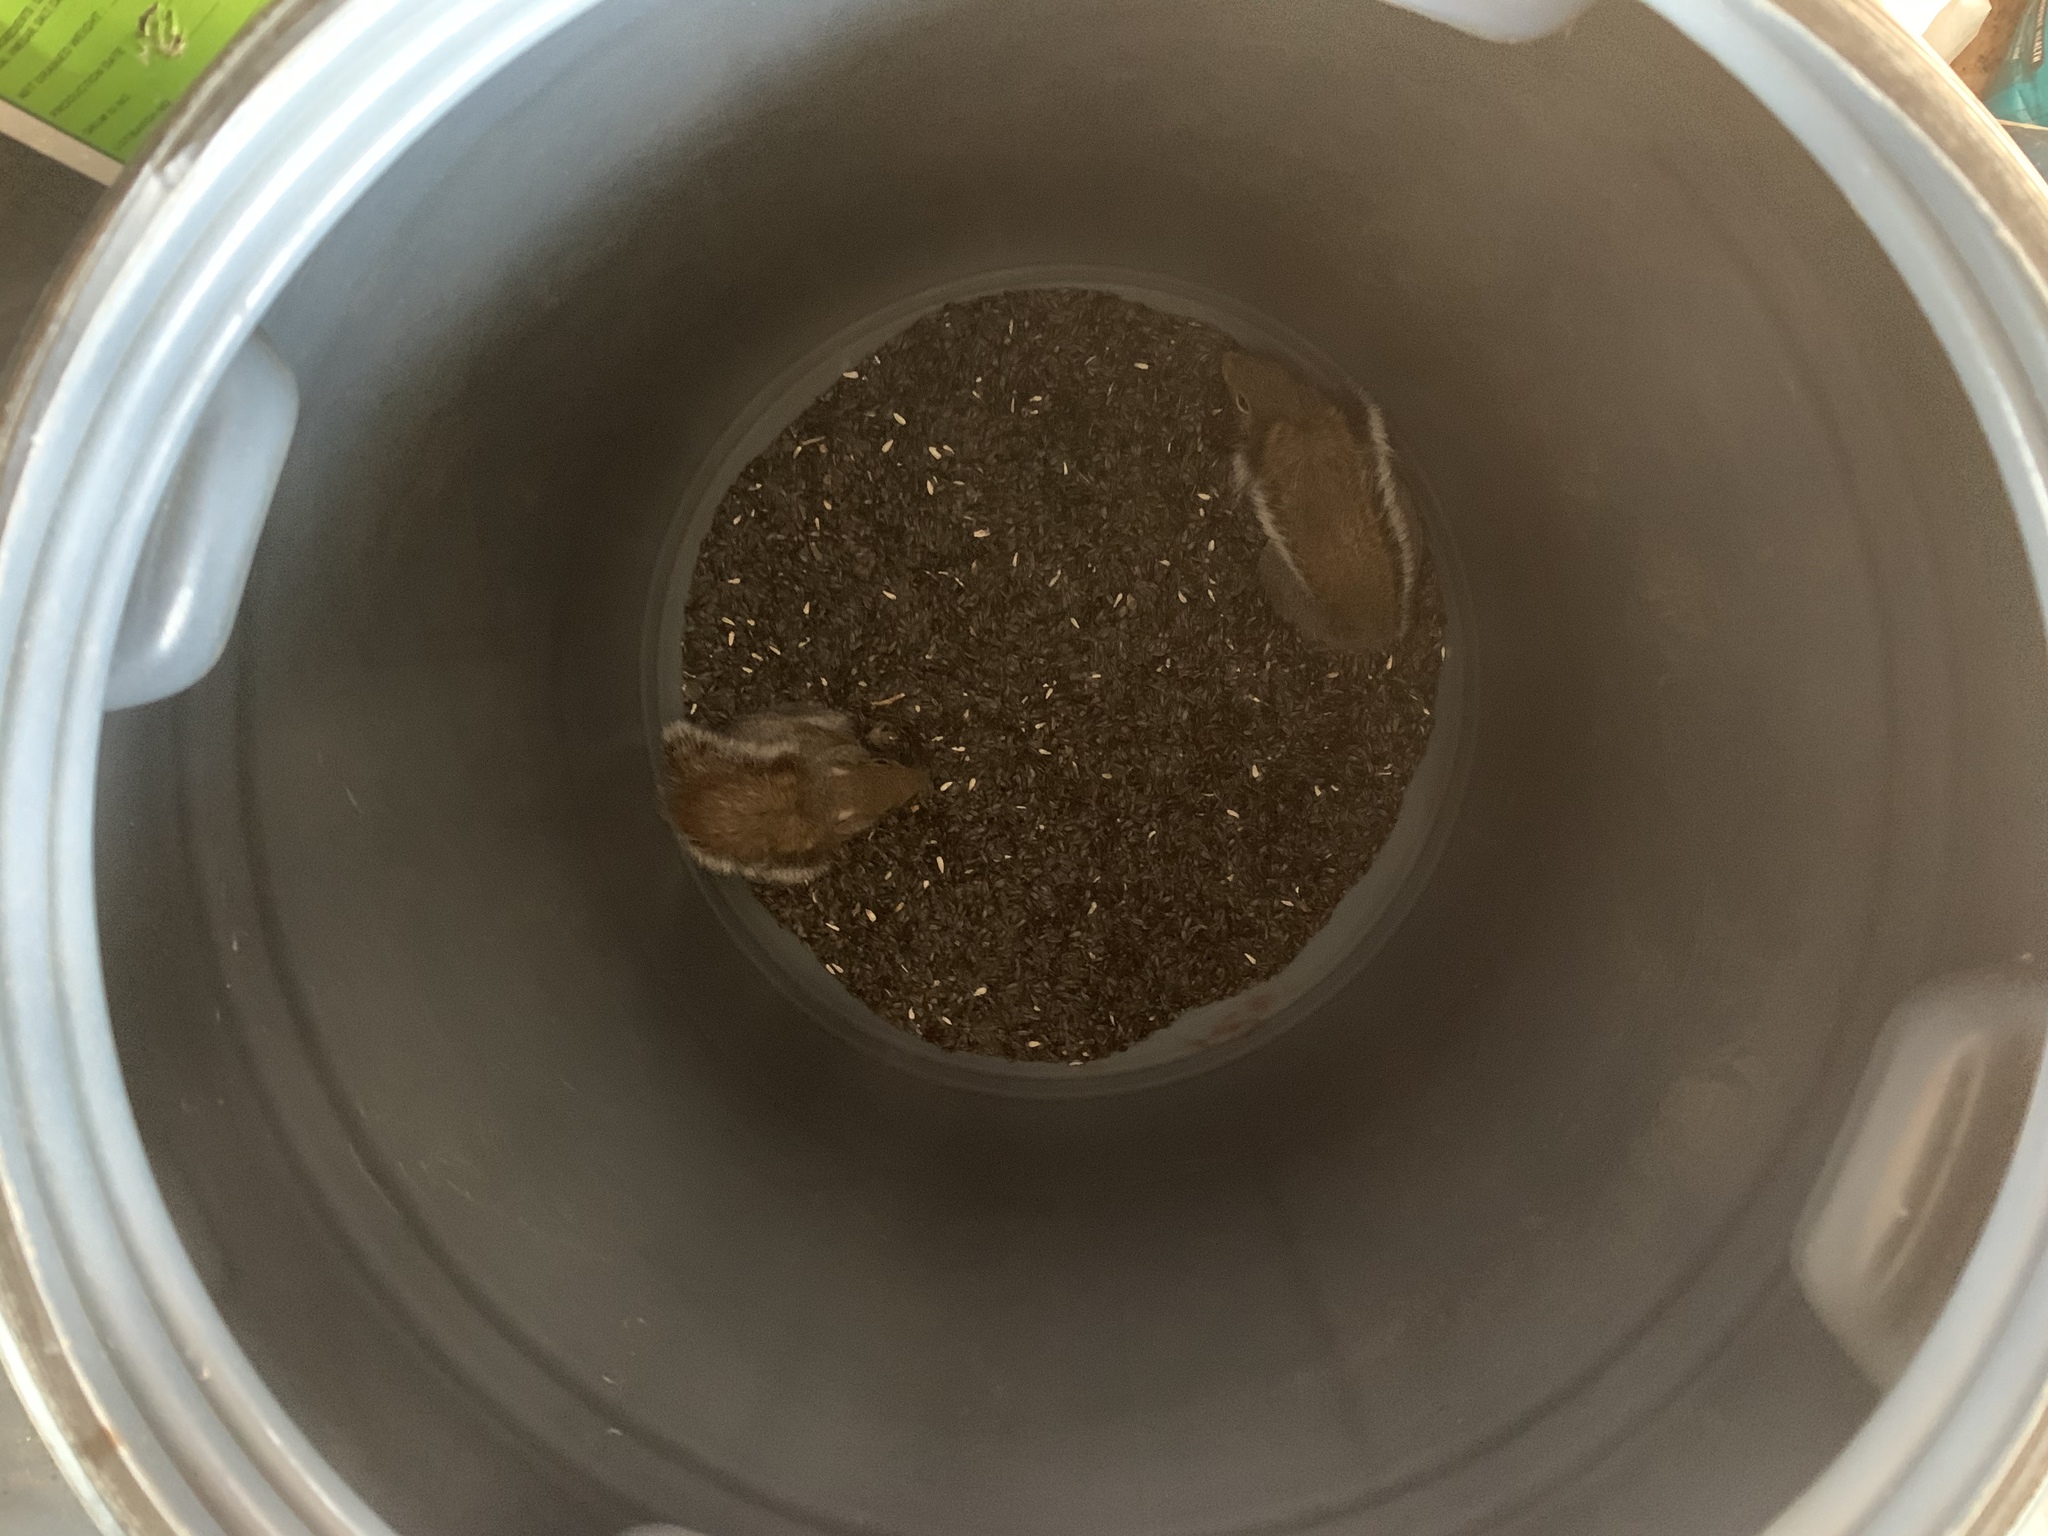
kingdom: Animalia
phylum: Chordata
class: Mammalia
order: Rodentia
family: Sciuridae
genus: Sciurus
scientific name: Sciurus carolinensis
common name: Eastern gray squirrel
